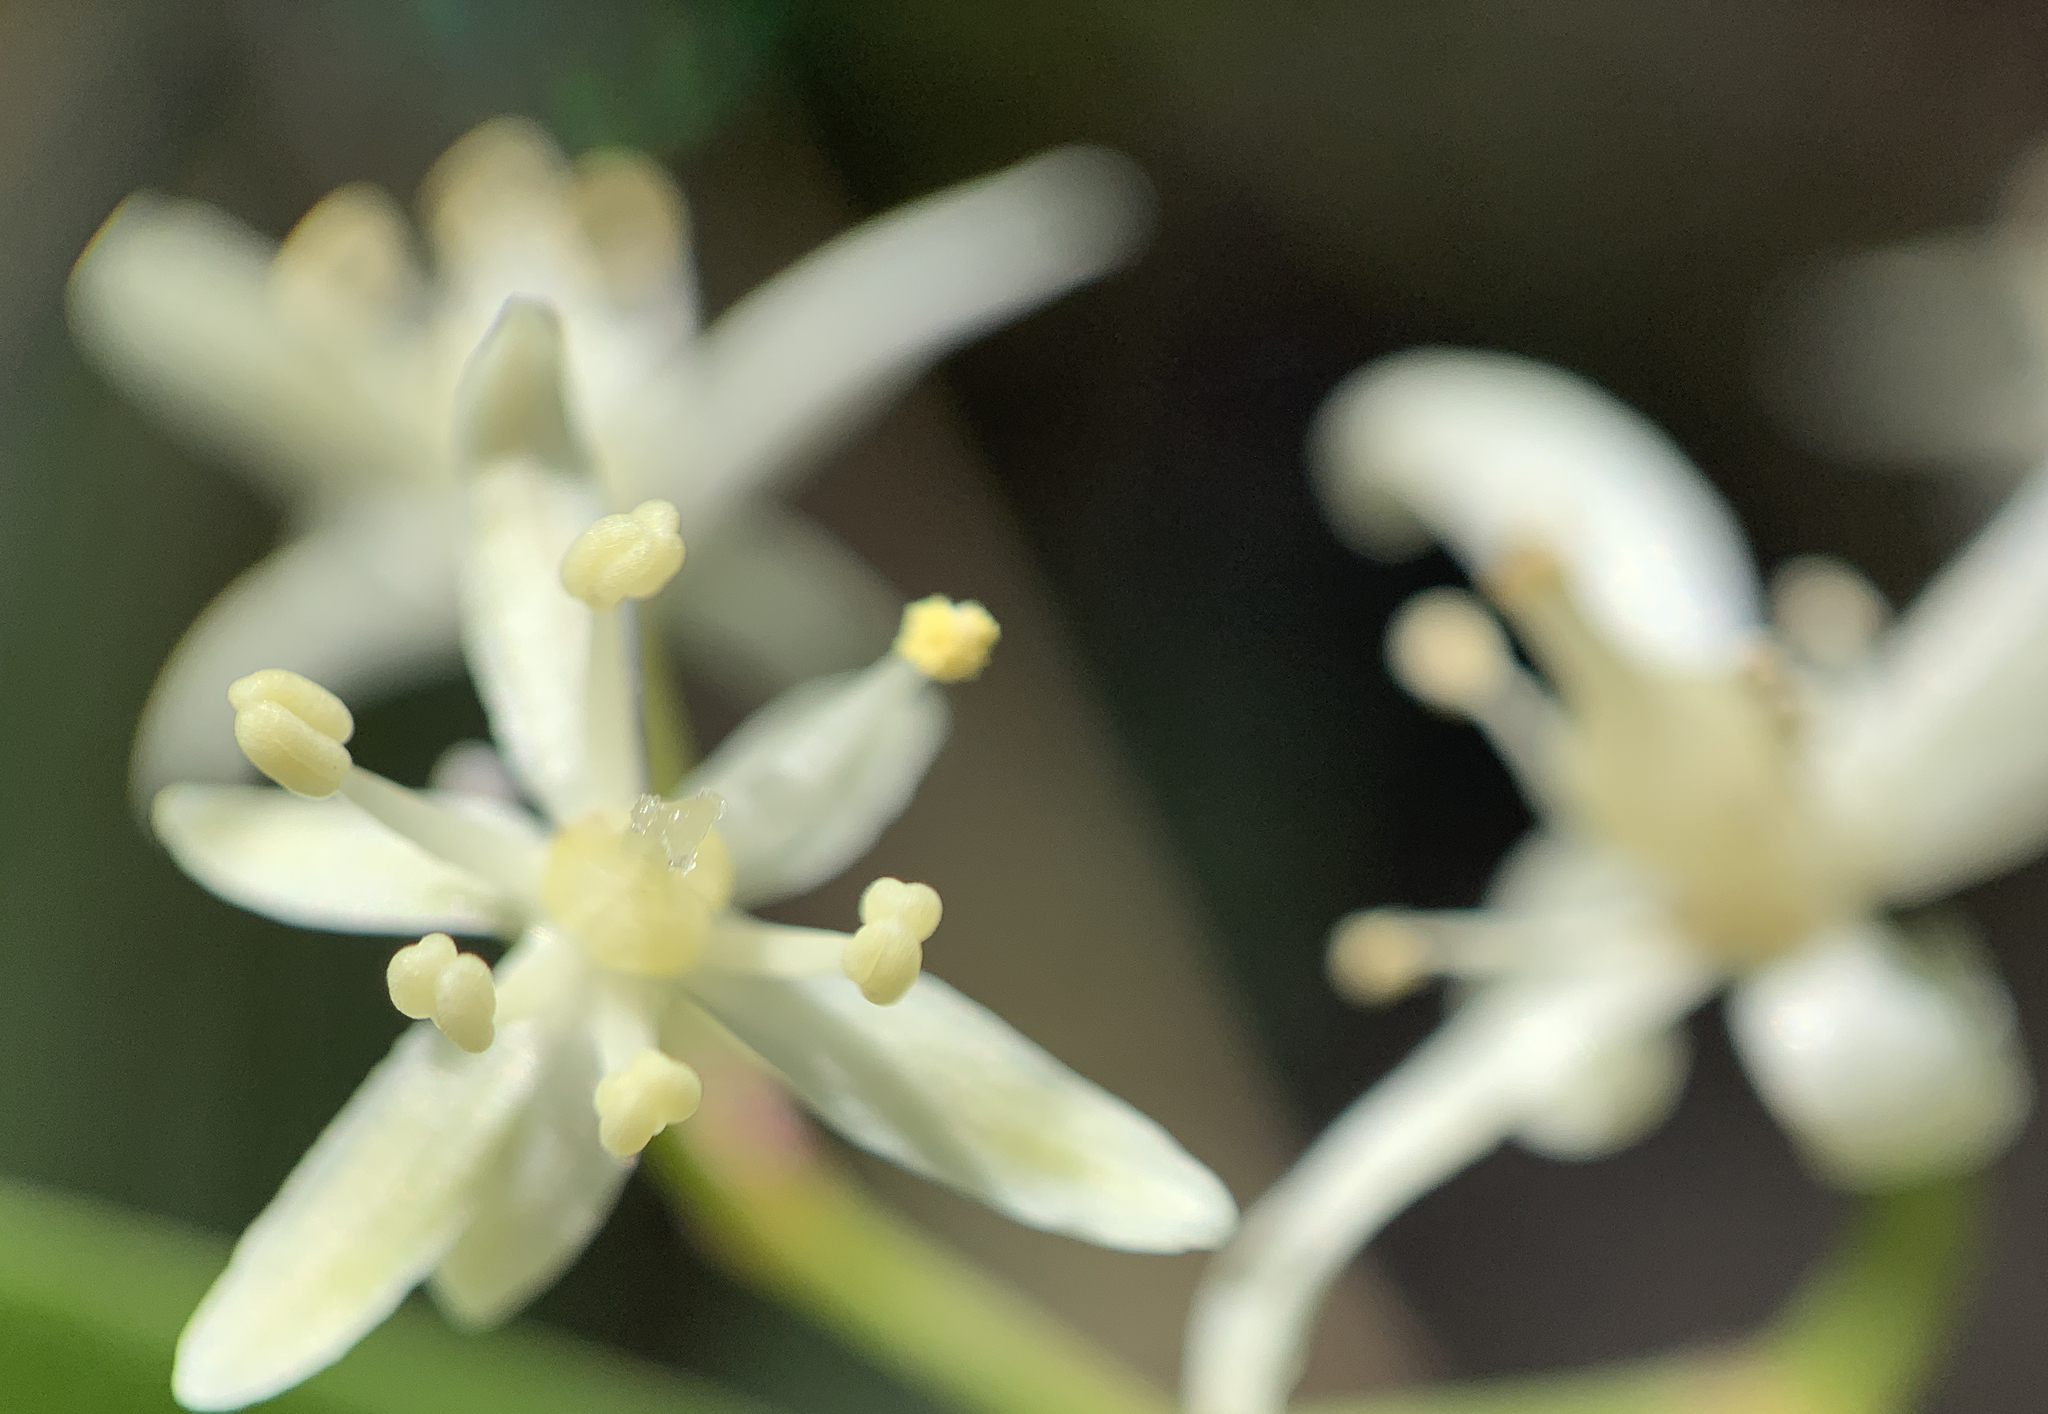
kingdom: Plantae
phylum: Tracheophyta
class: Liliopsida
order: Asparagales
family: Asparagaceae
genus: Maianthemum
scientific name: Maianthemum stellatum
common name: Little false solomon's seal
